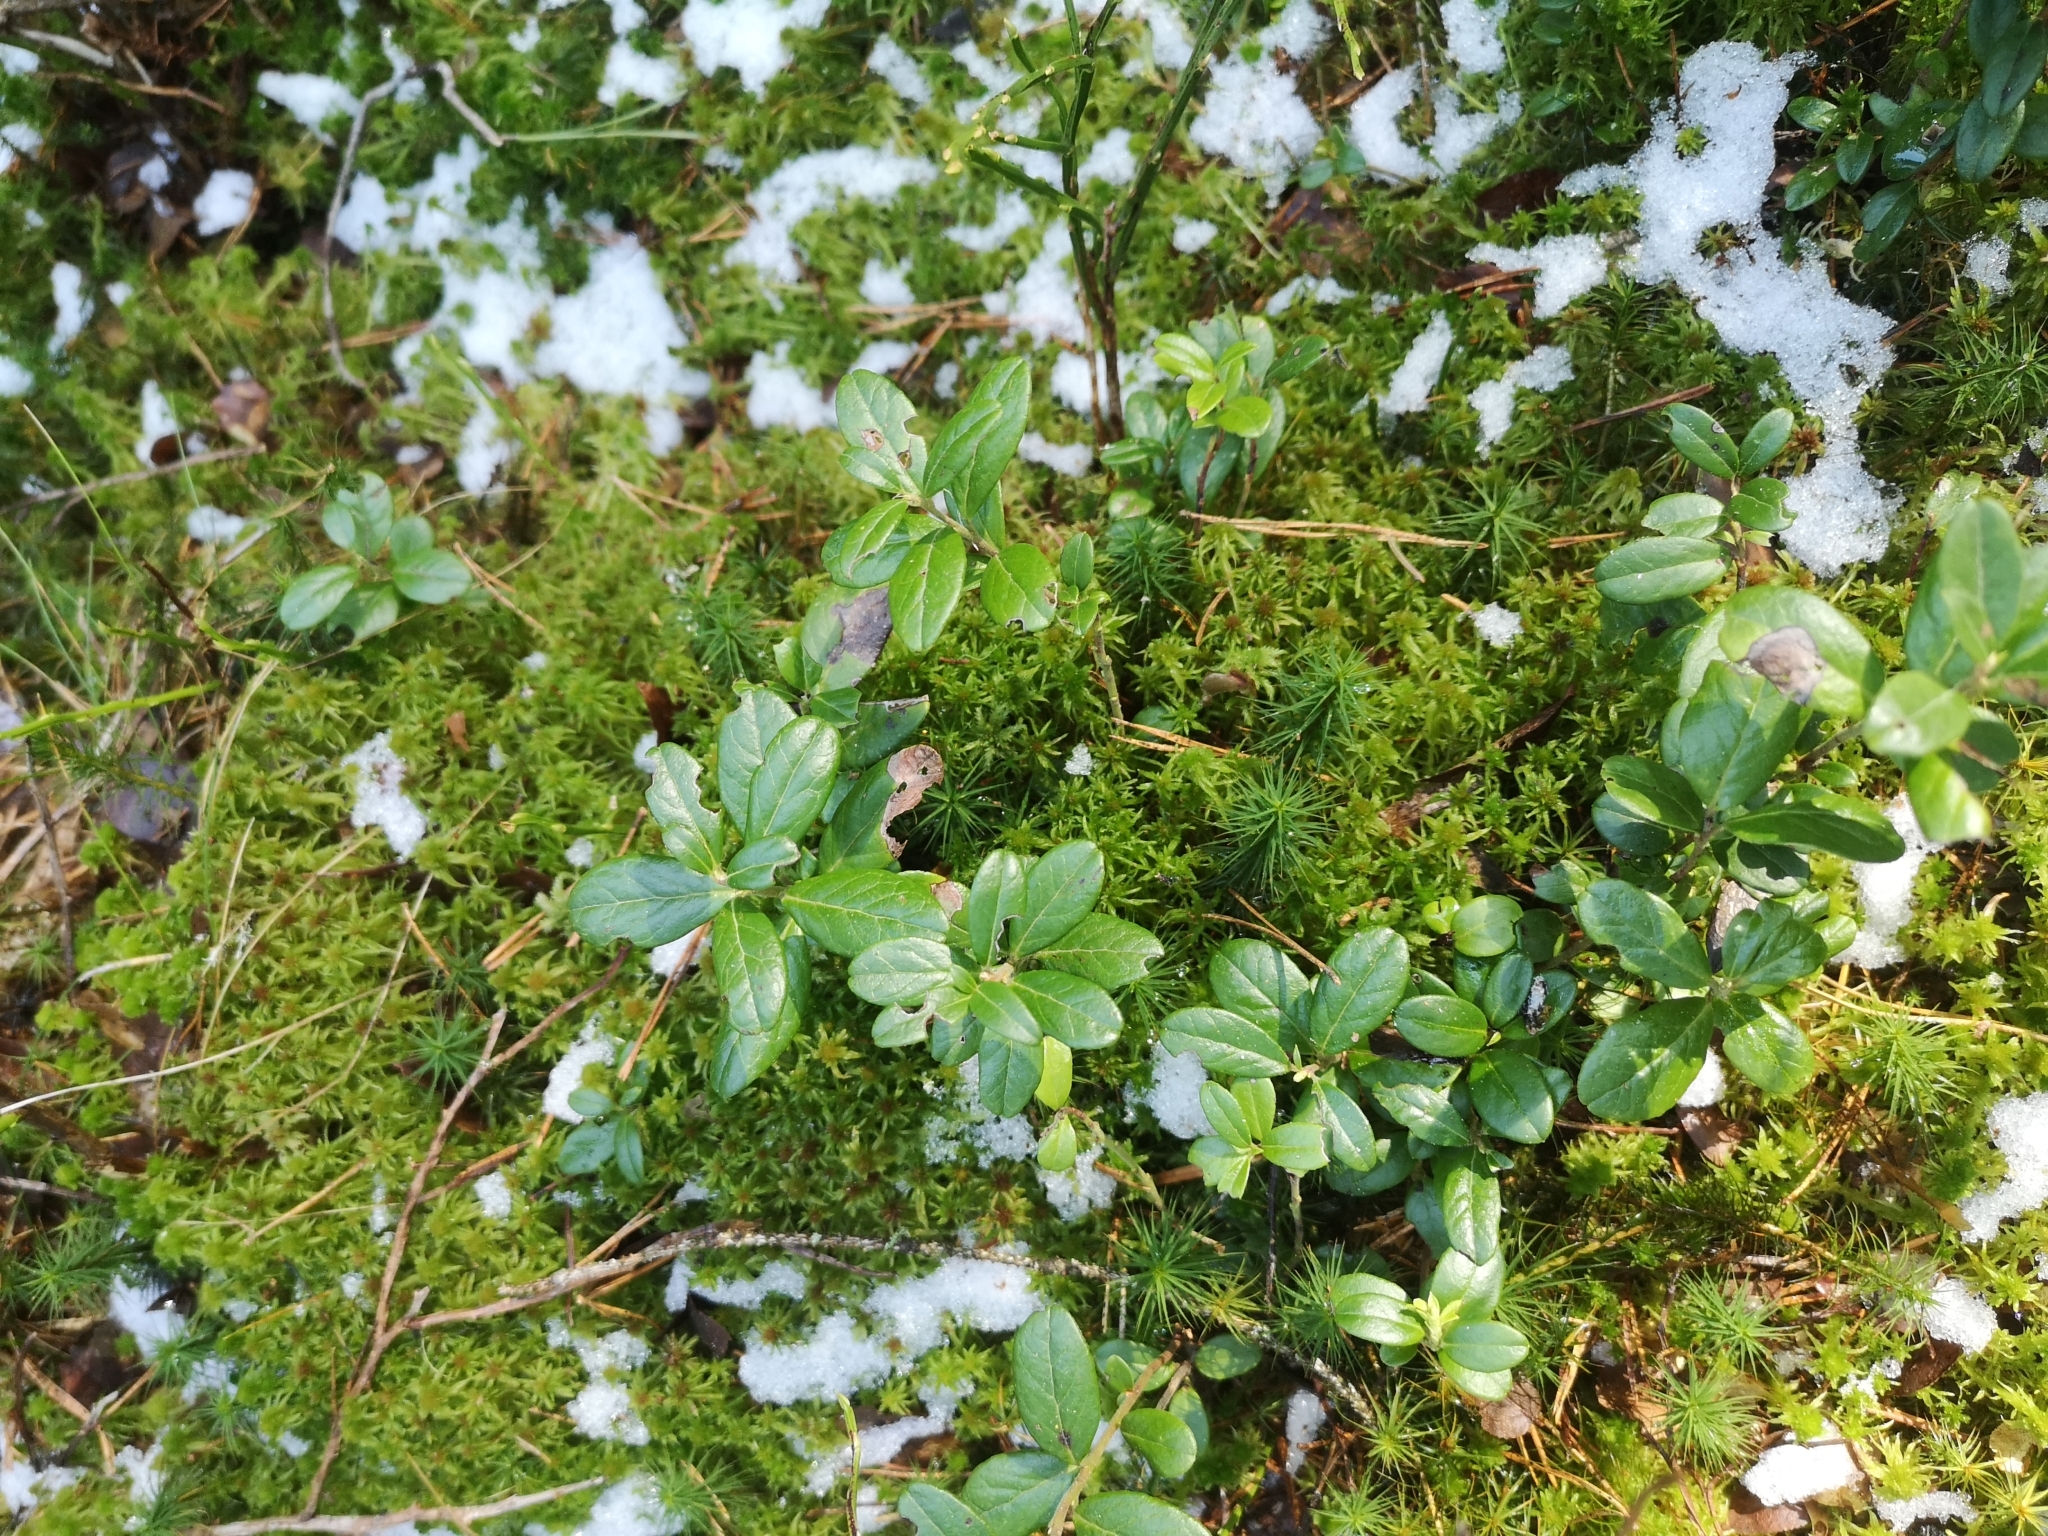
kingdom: Plantae
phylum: Tracheophyta
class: Magnoliopsida
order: Ericales
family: Ericaceae
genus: Vaccinium
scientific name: Vaccinium vitis-idaea
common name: Cowberry
